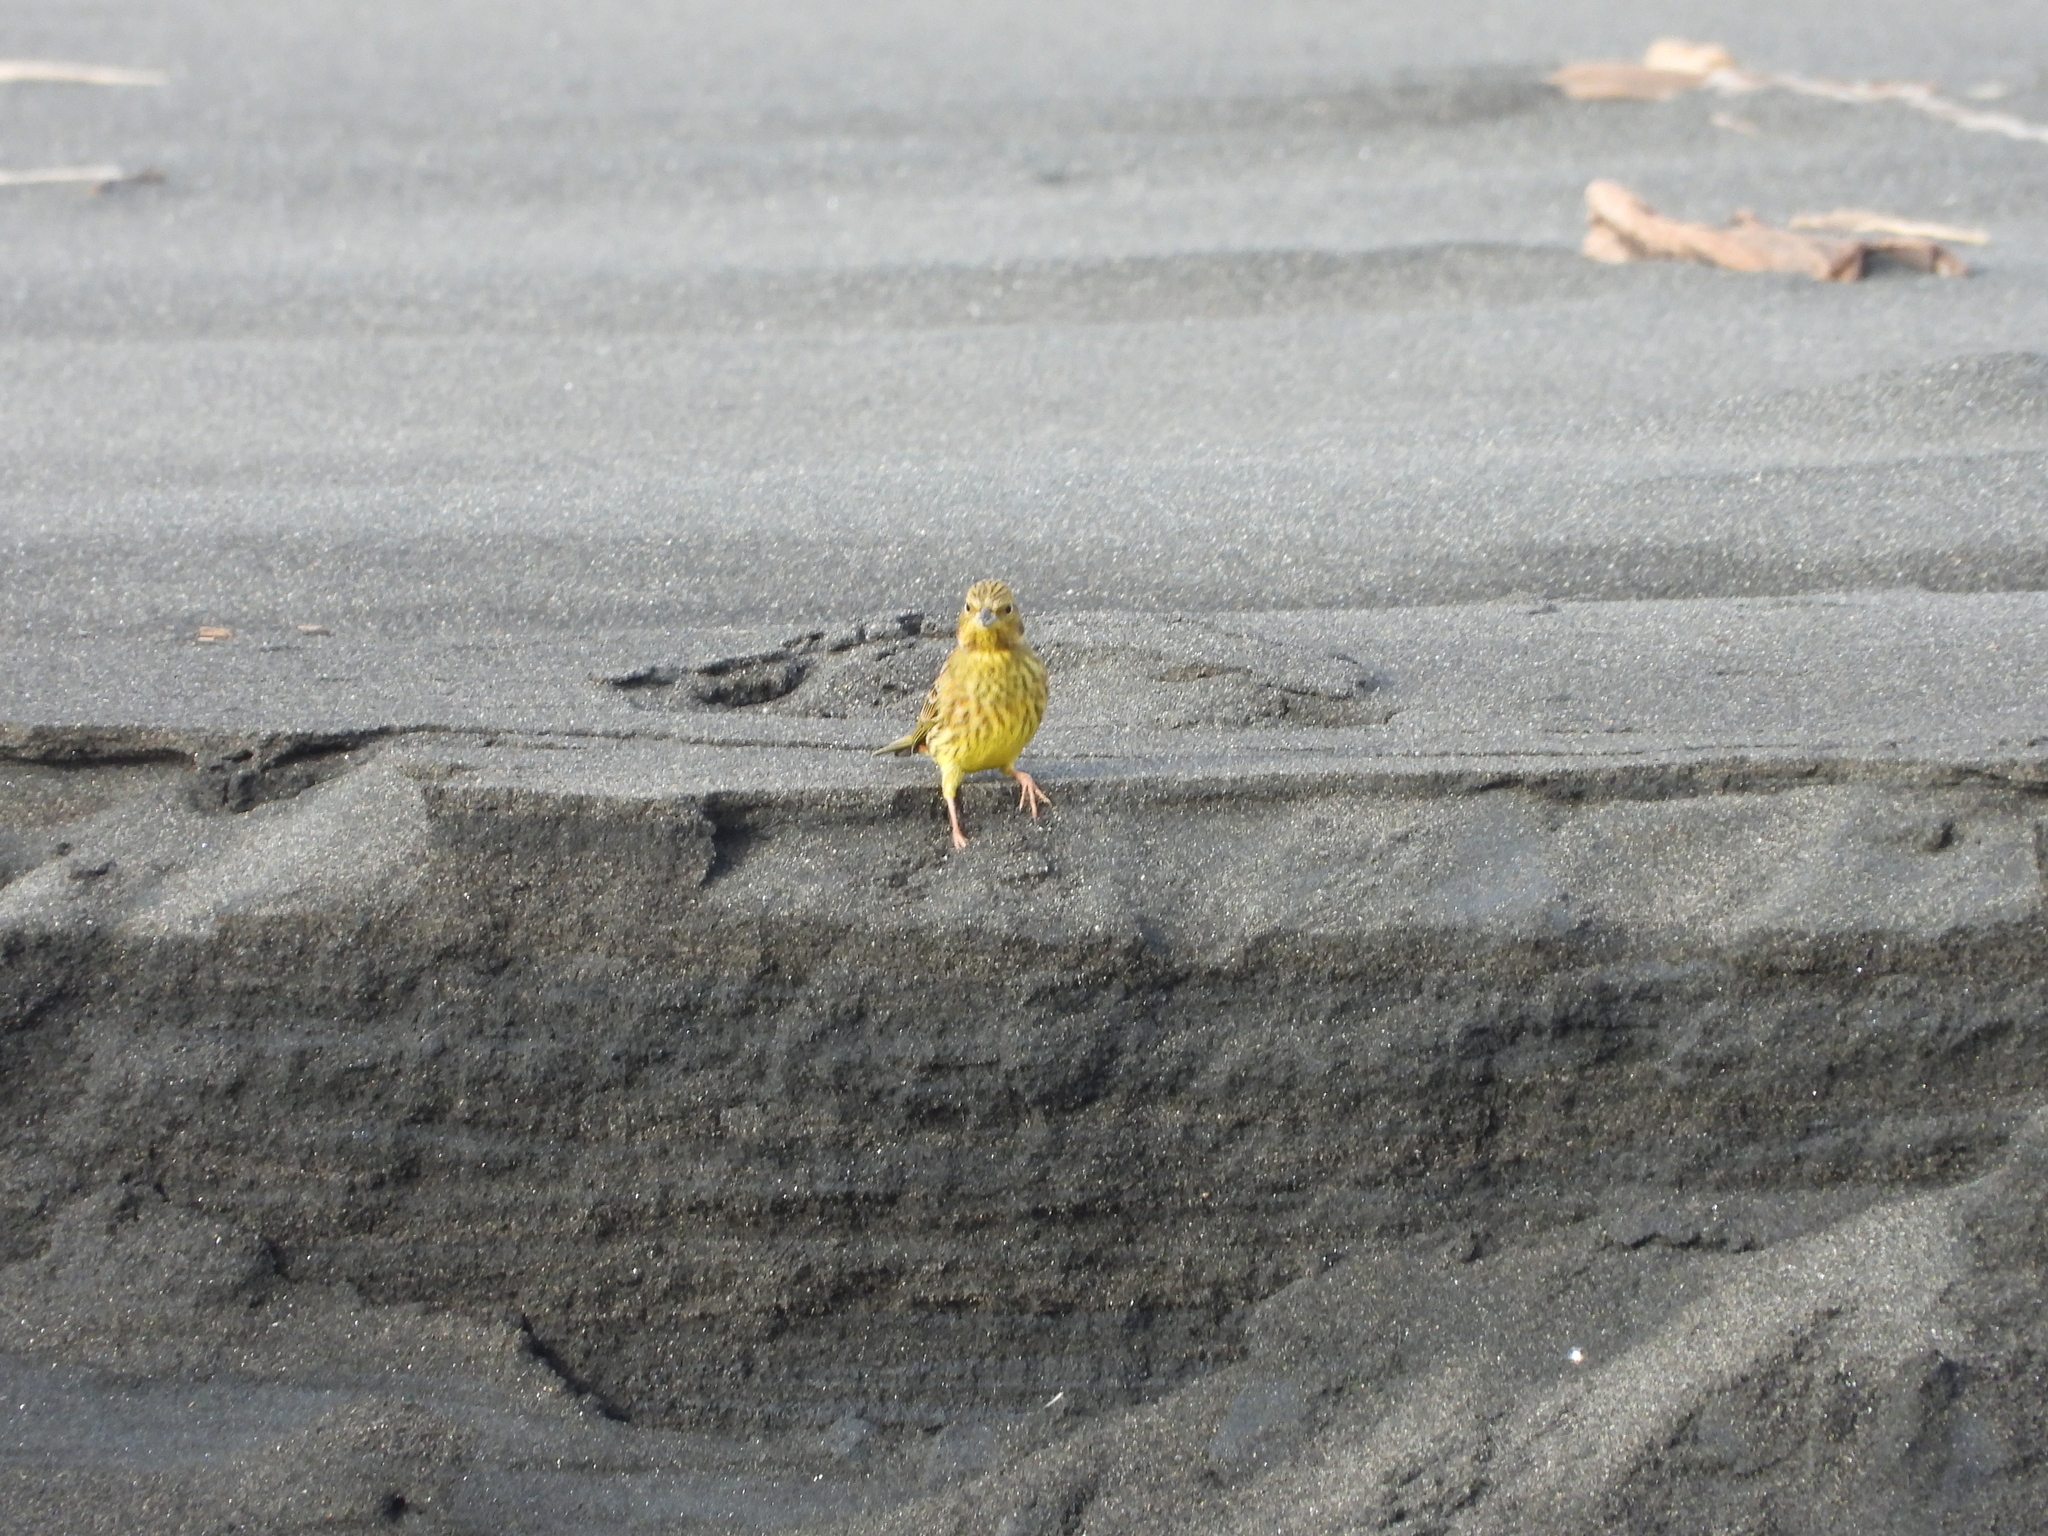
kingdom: Animalia
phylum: Chordata
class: Aves
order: Passeriformes
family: Emberizidae
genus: Emberiza
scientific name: Emberiza citrinella
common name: Yellowhammer
